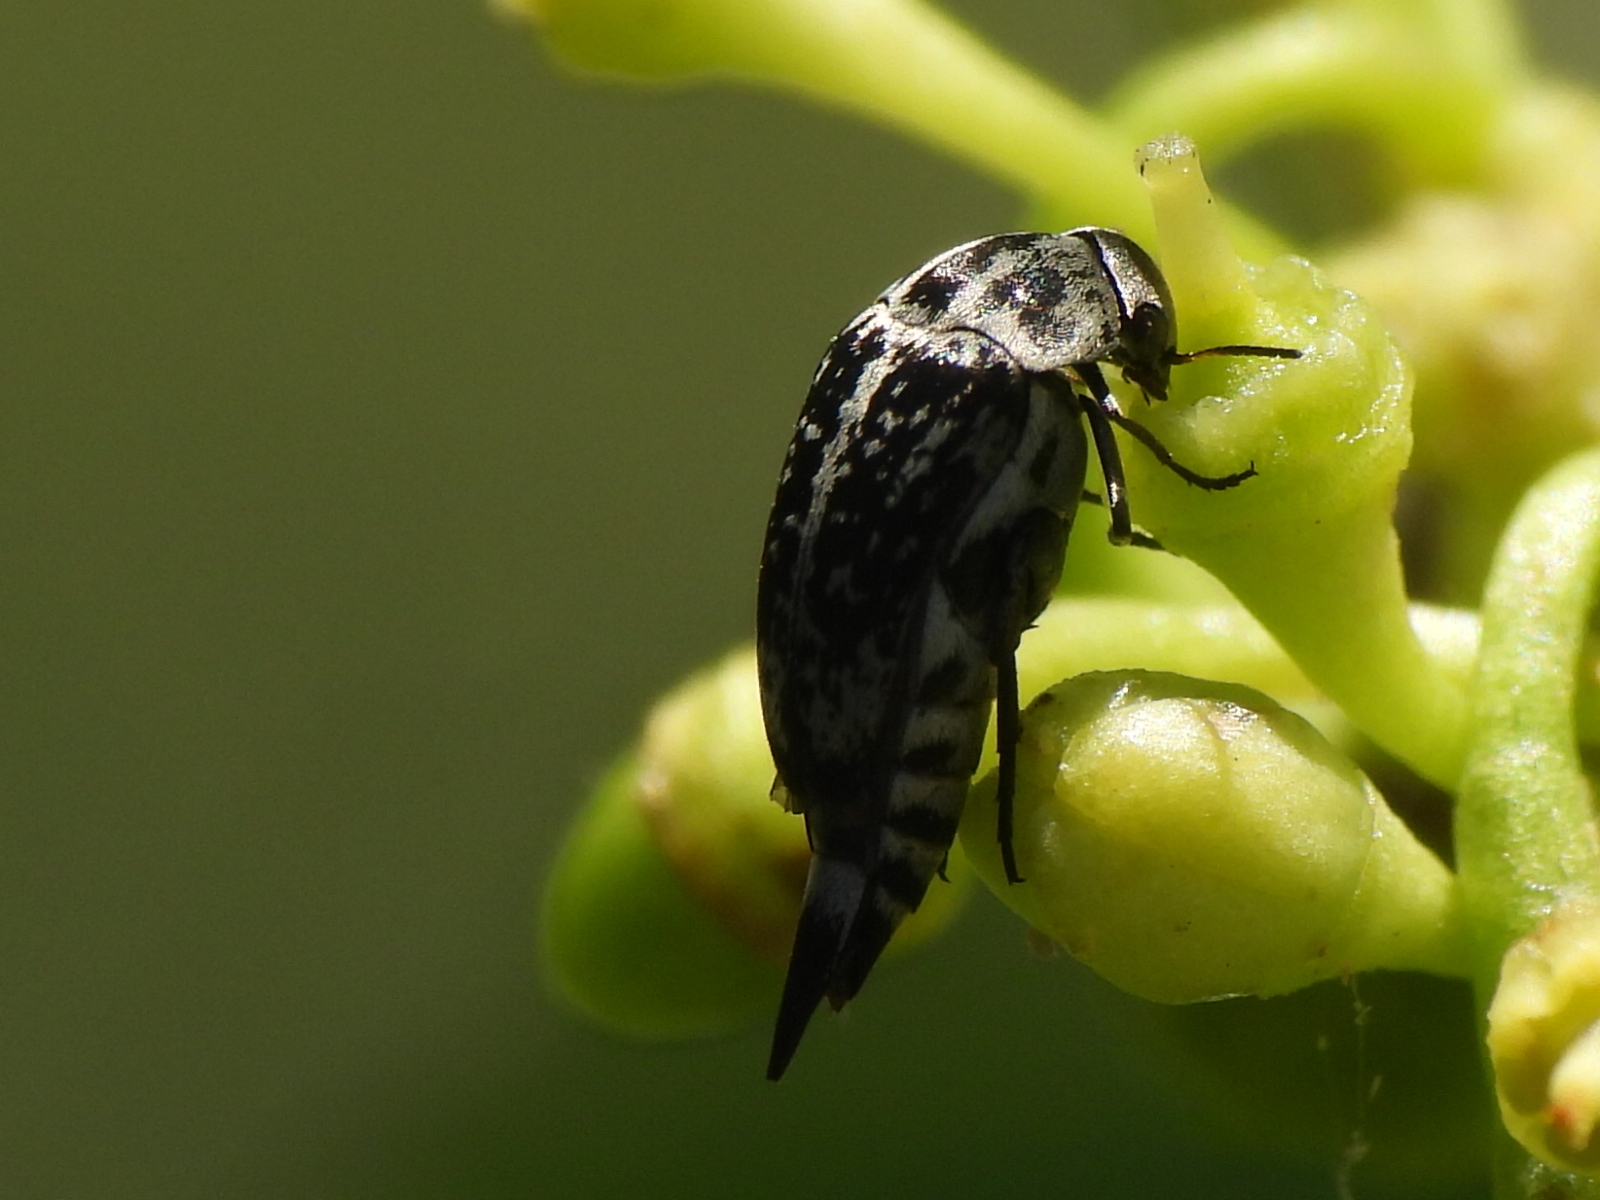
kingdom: Animalia
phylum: Arthropoda
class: Insecta
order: Coleoptera
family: Mordellidae
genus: Mordella
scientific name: Mordella marginata
